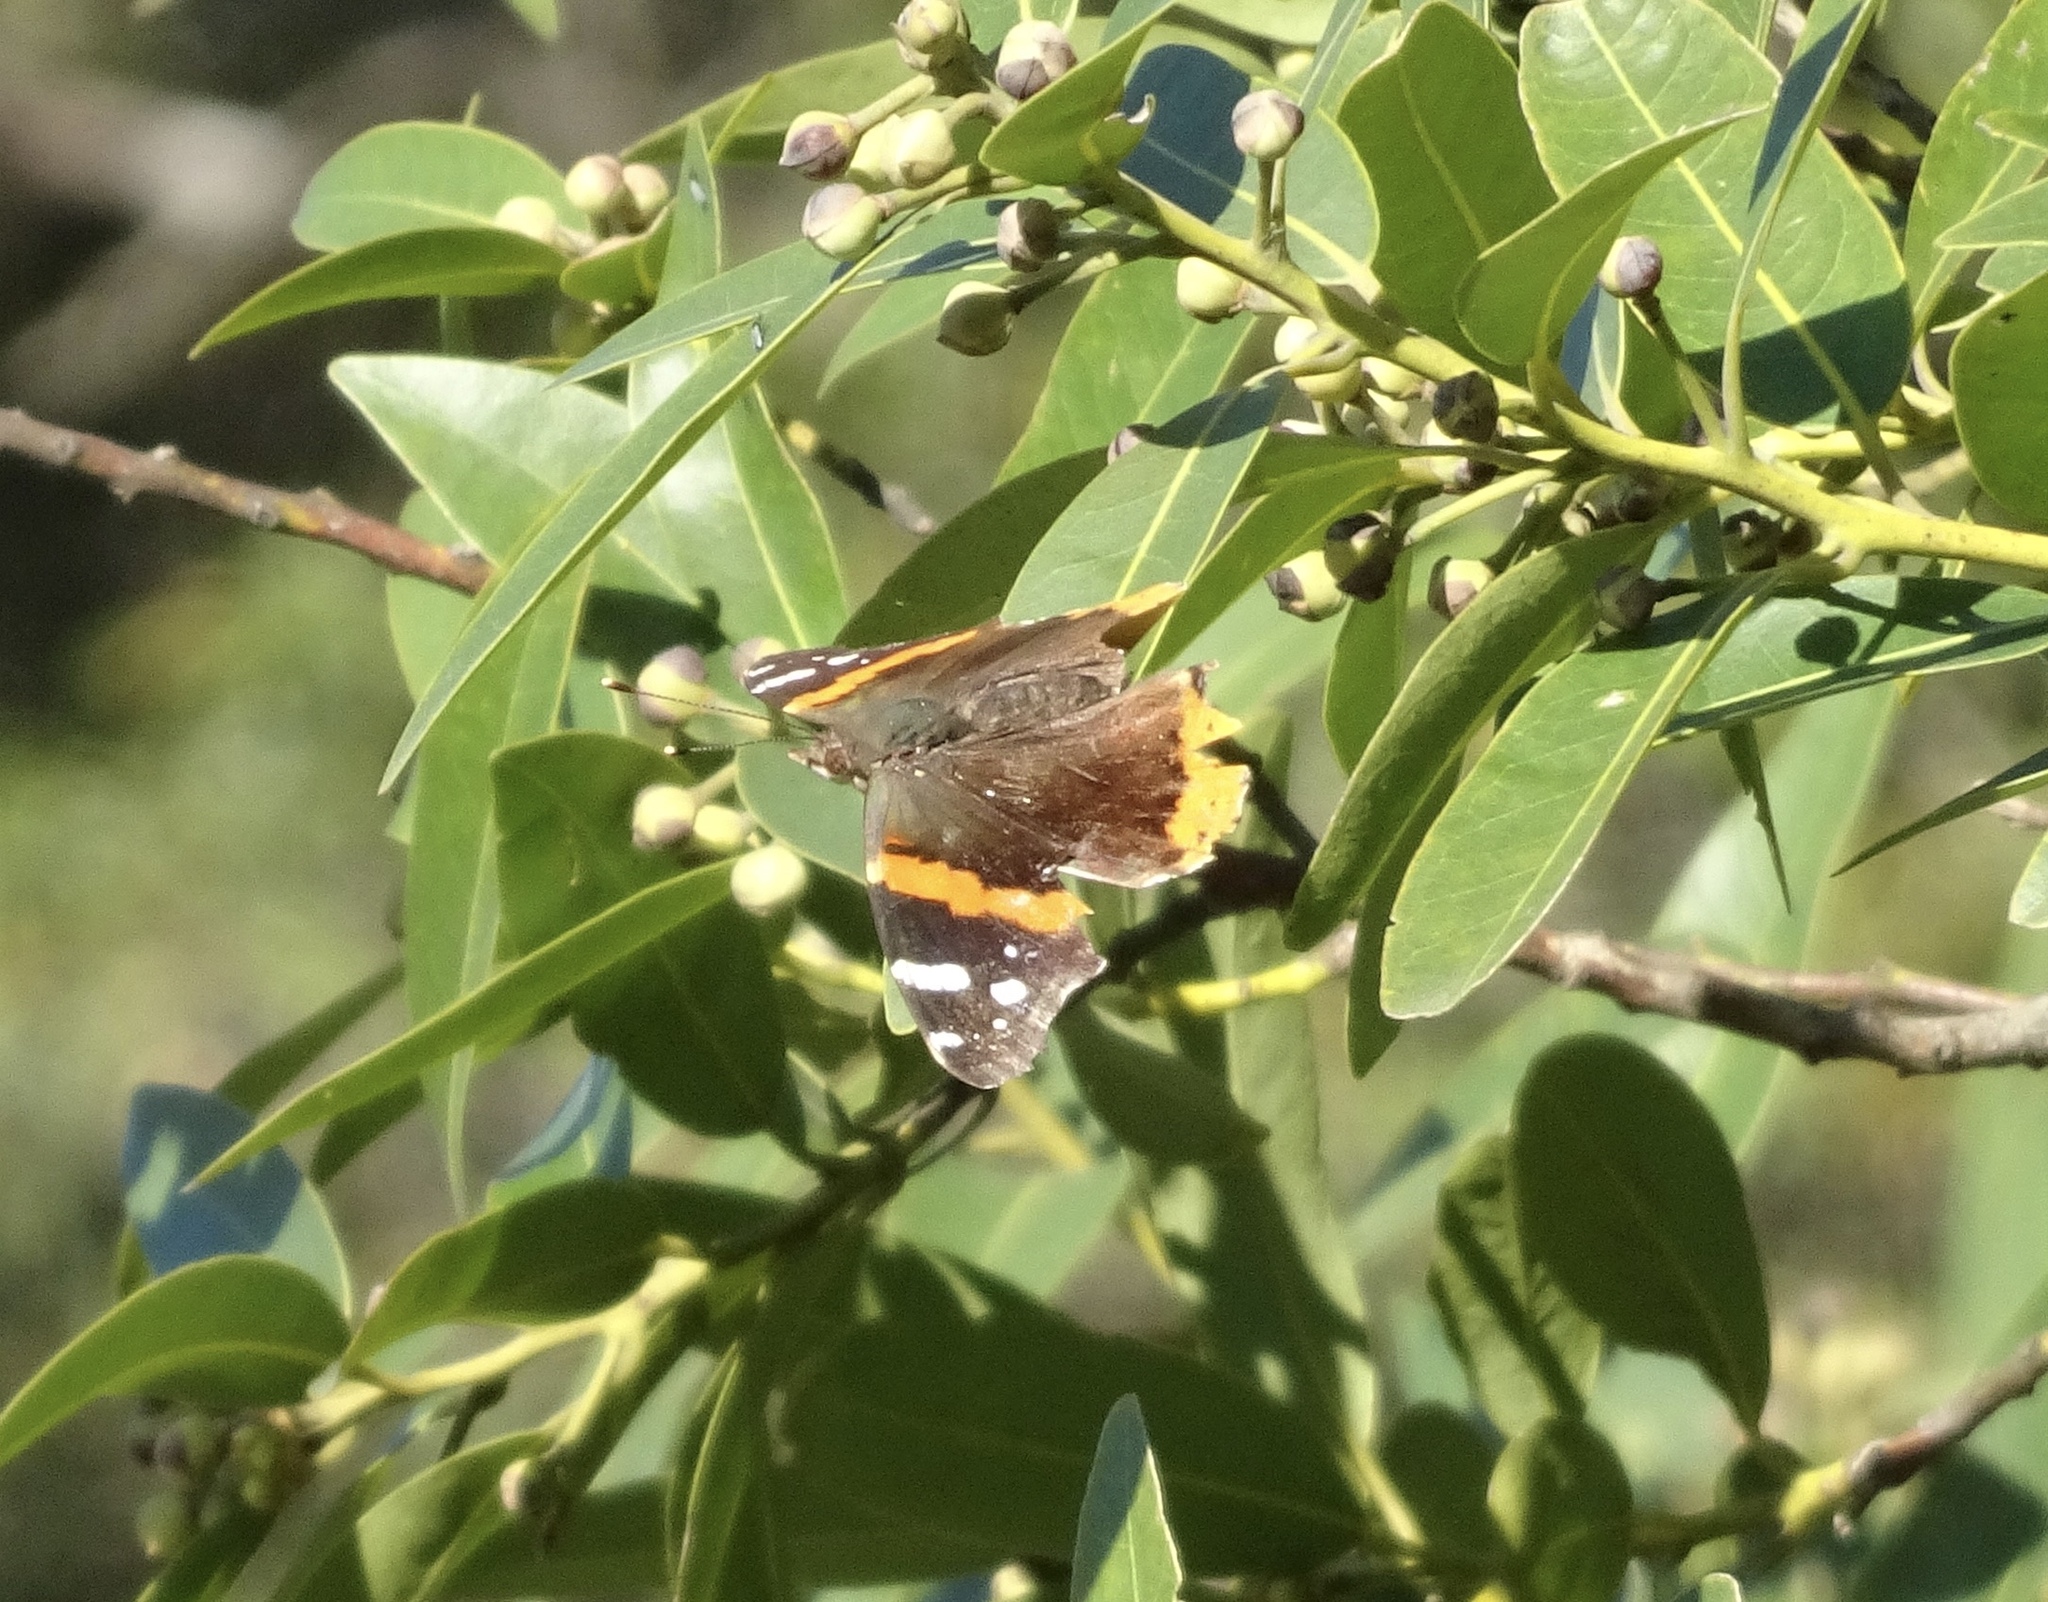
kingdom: Animalia
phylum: Arthropoda
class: Insecta
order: Lepidoptera
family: Nymphalidae
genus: Vanessa
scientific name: Vanessa atalanta
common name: Red admiral
